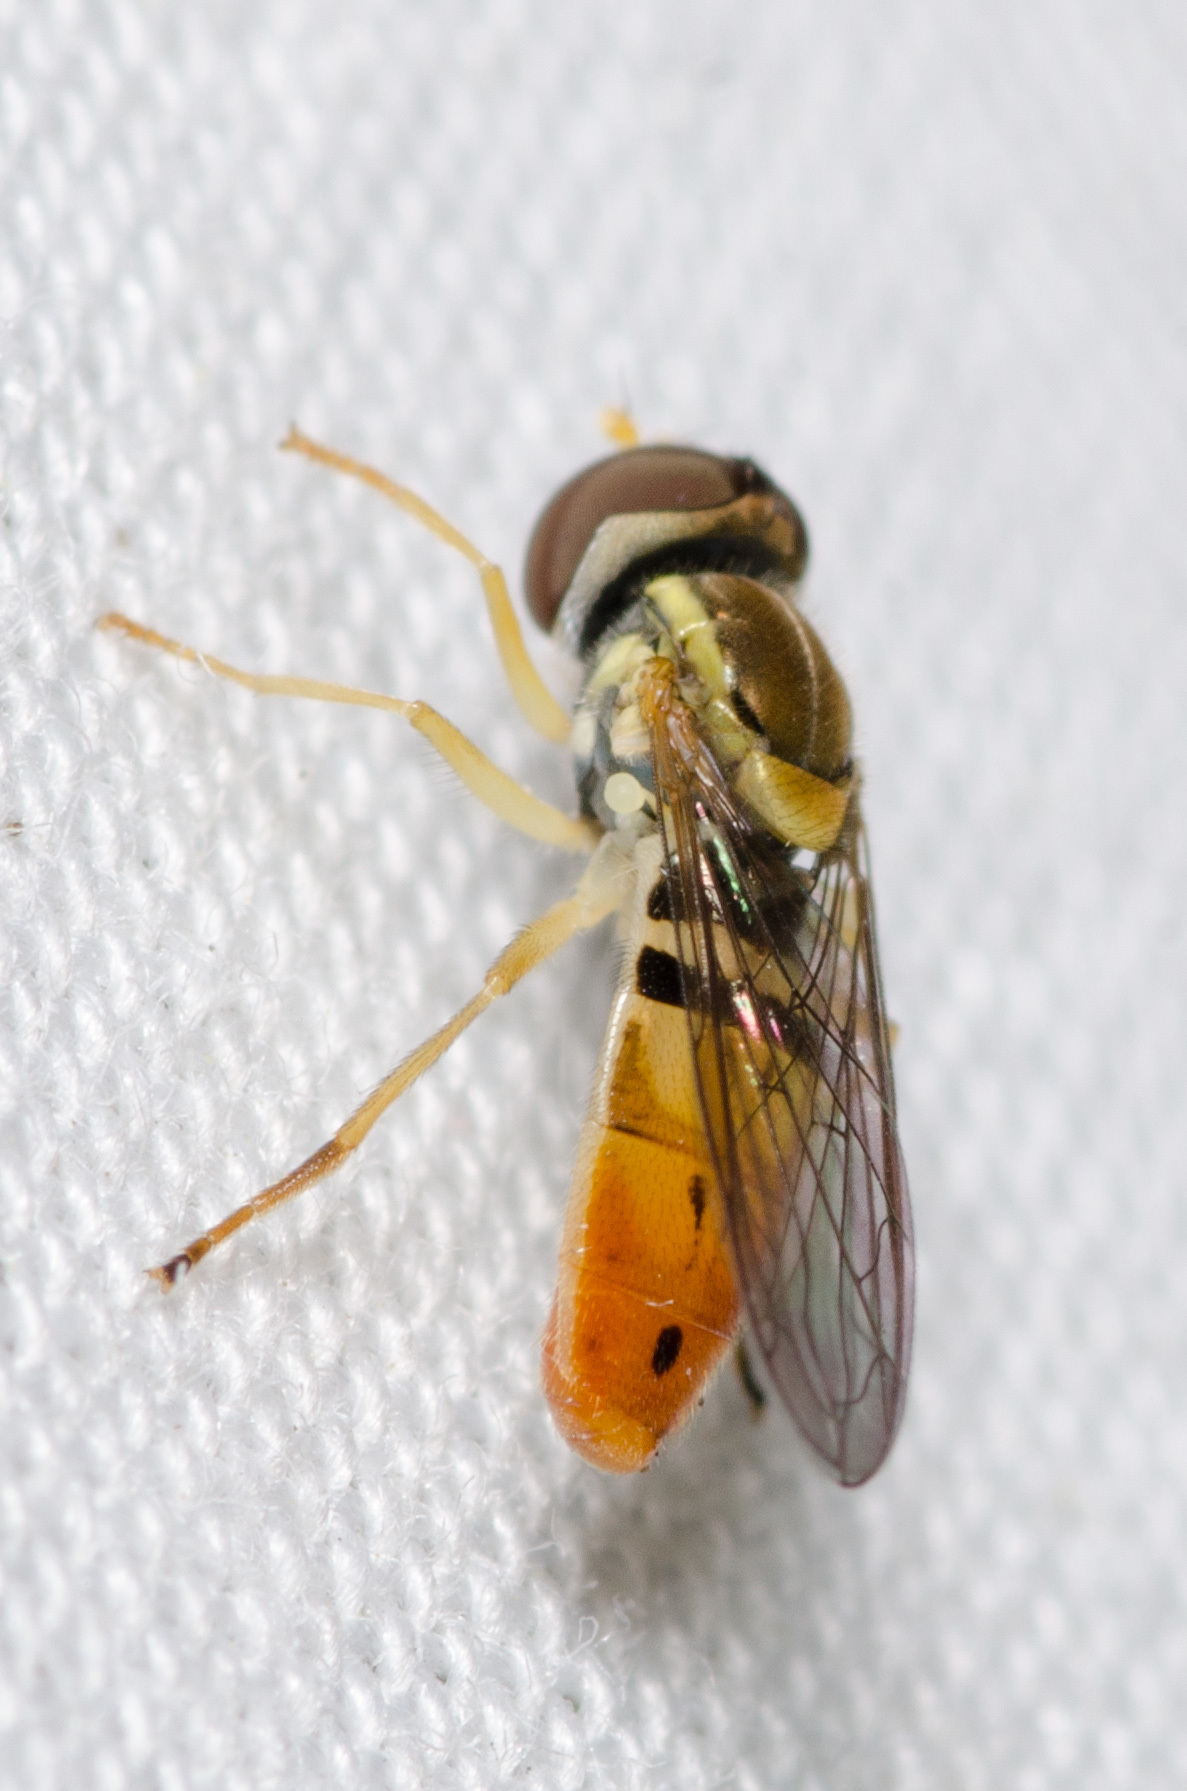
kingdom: Animalia
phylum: Arthropoda
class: Insecta
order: Diptera
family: Syrphidae
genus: Toxomerus
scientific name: Toxomerus marginatus
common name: Syrphid fly
